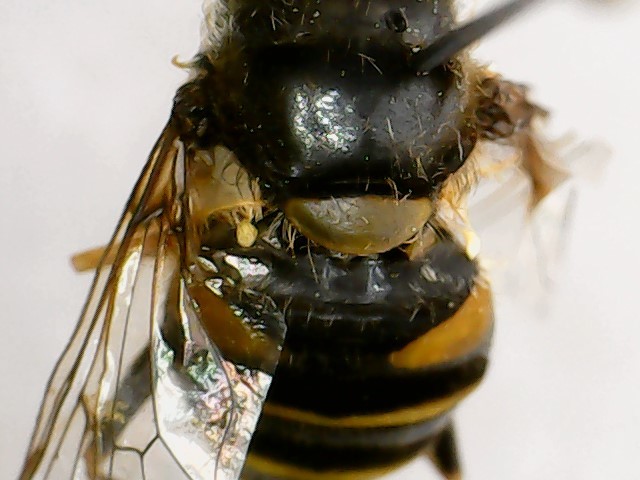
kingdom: Animalia
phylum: Arthropoda
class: Insecta
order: Diptera
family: Syrphidae
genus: Eristalis
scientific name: Eristalis transversa
